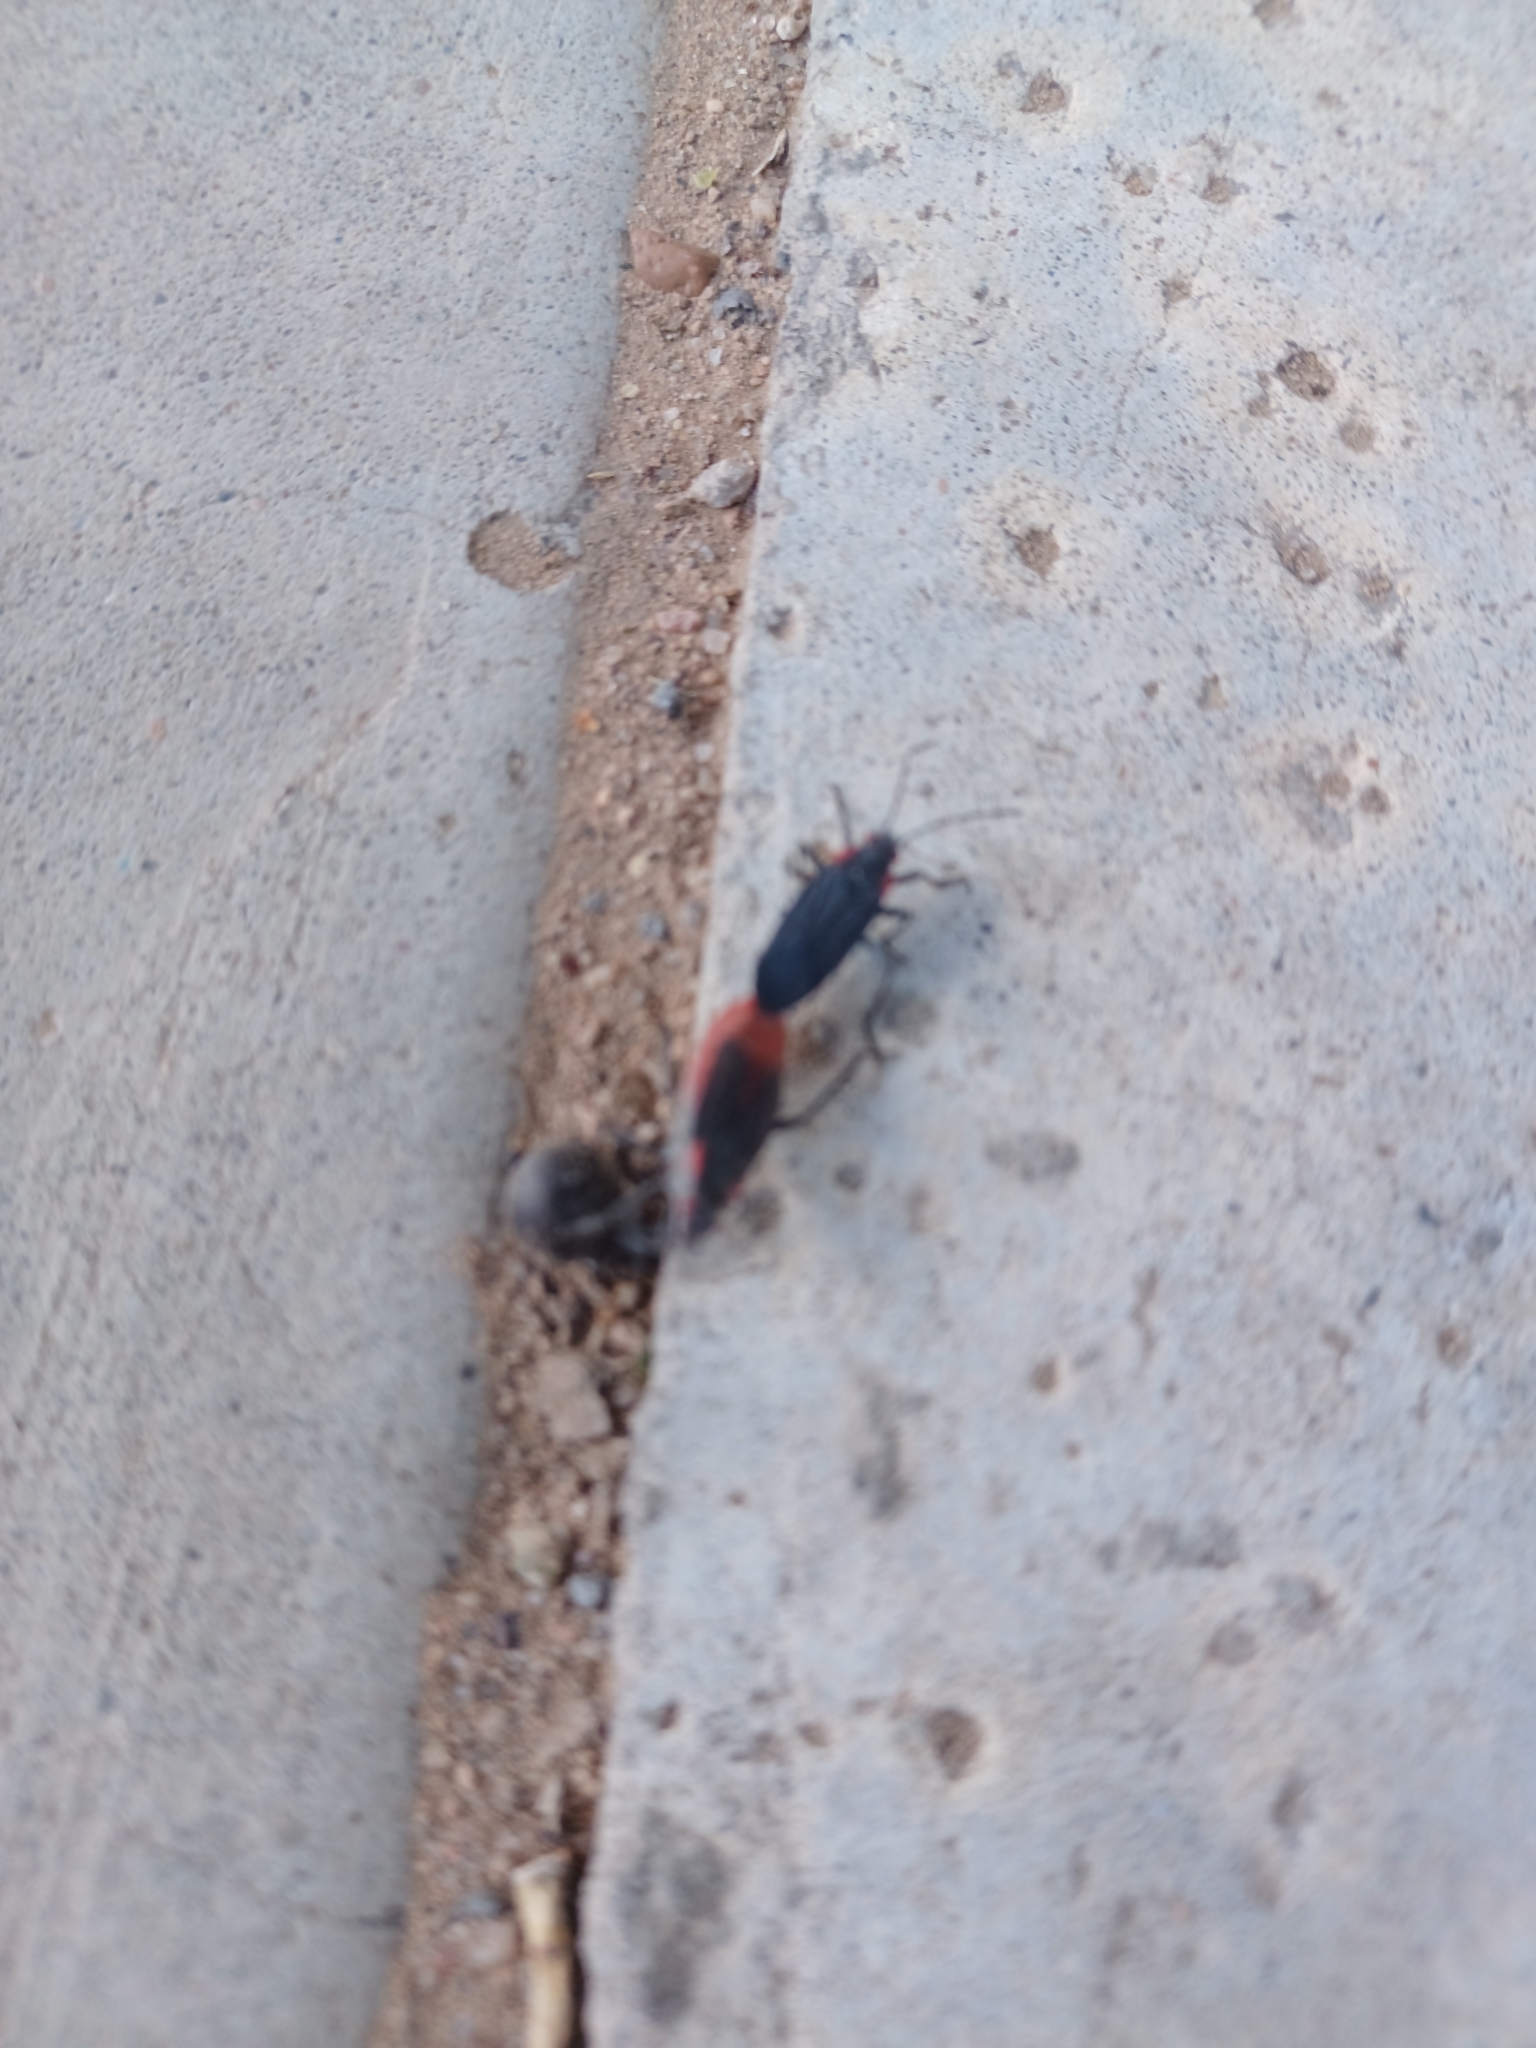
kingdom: Animalia
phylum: Arthropoda
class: Insecta
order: Hemiptera
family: Rhopalidae
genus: Jadera
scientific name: Jadera haematoloma
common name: Red-shouldered bug
